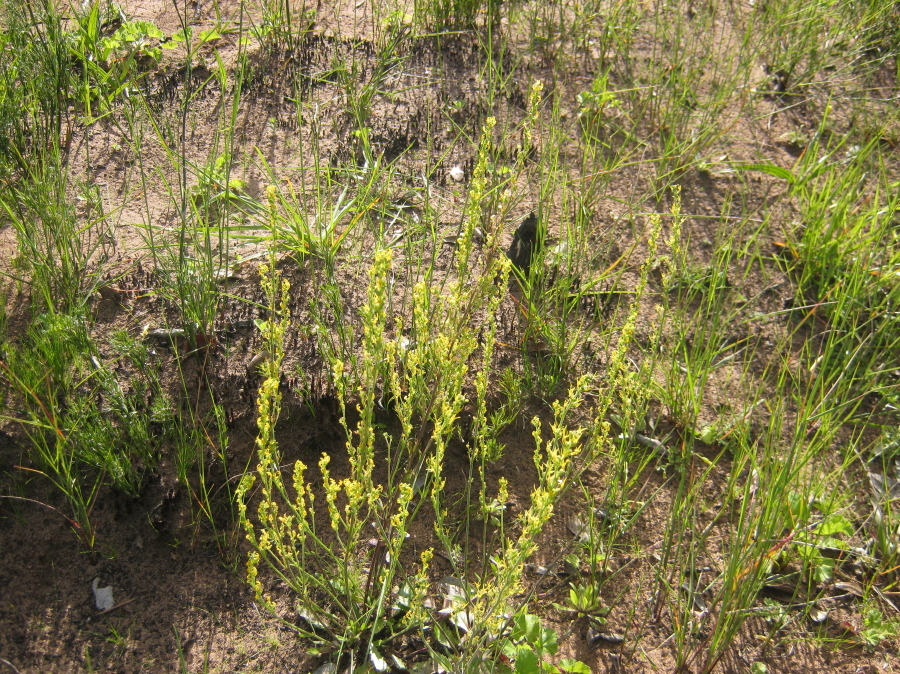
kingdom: Plantae
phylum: Tracheophyta
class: Magnoliopsida
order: Lamiales
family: Scrophulariaceae
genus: Manulea
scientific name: Manulea cheiranthus
